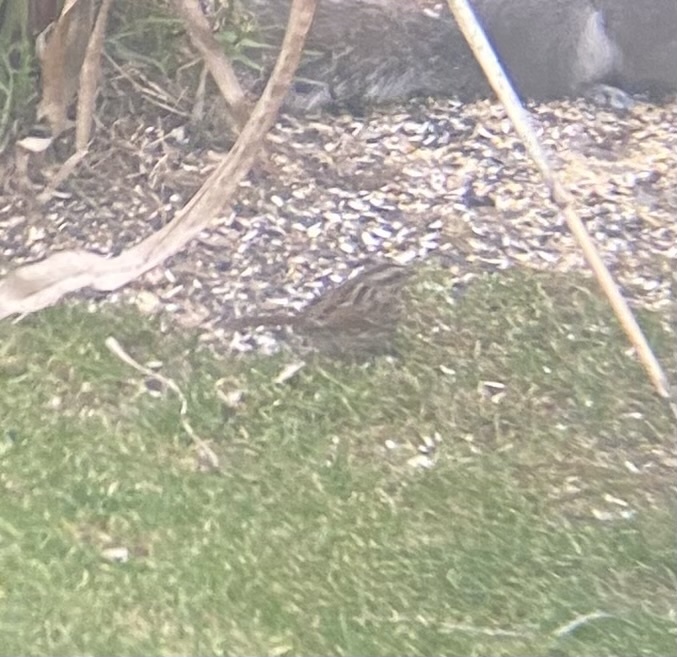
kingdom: Animalia
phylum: Chordata
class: Aves
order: Passeriformes
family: Passerellidae
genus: Melospiza
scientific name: Melospiza melodia
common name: Song sparrow
